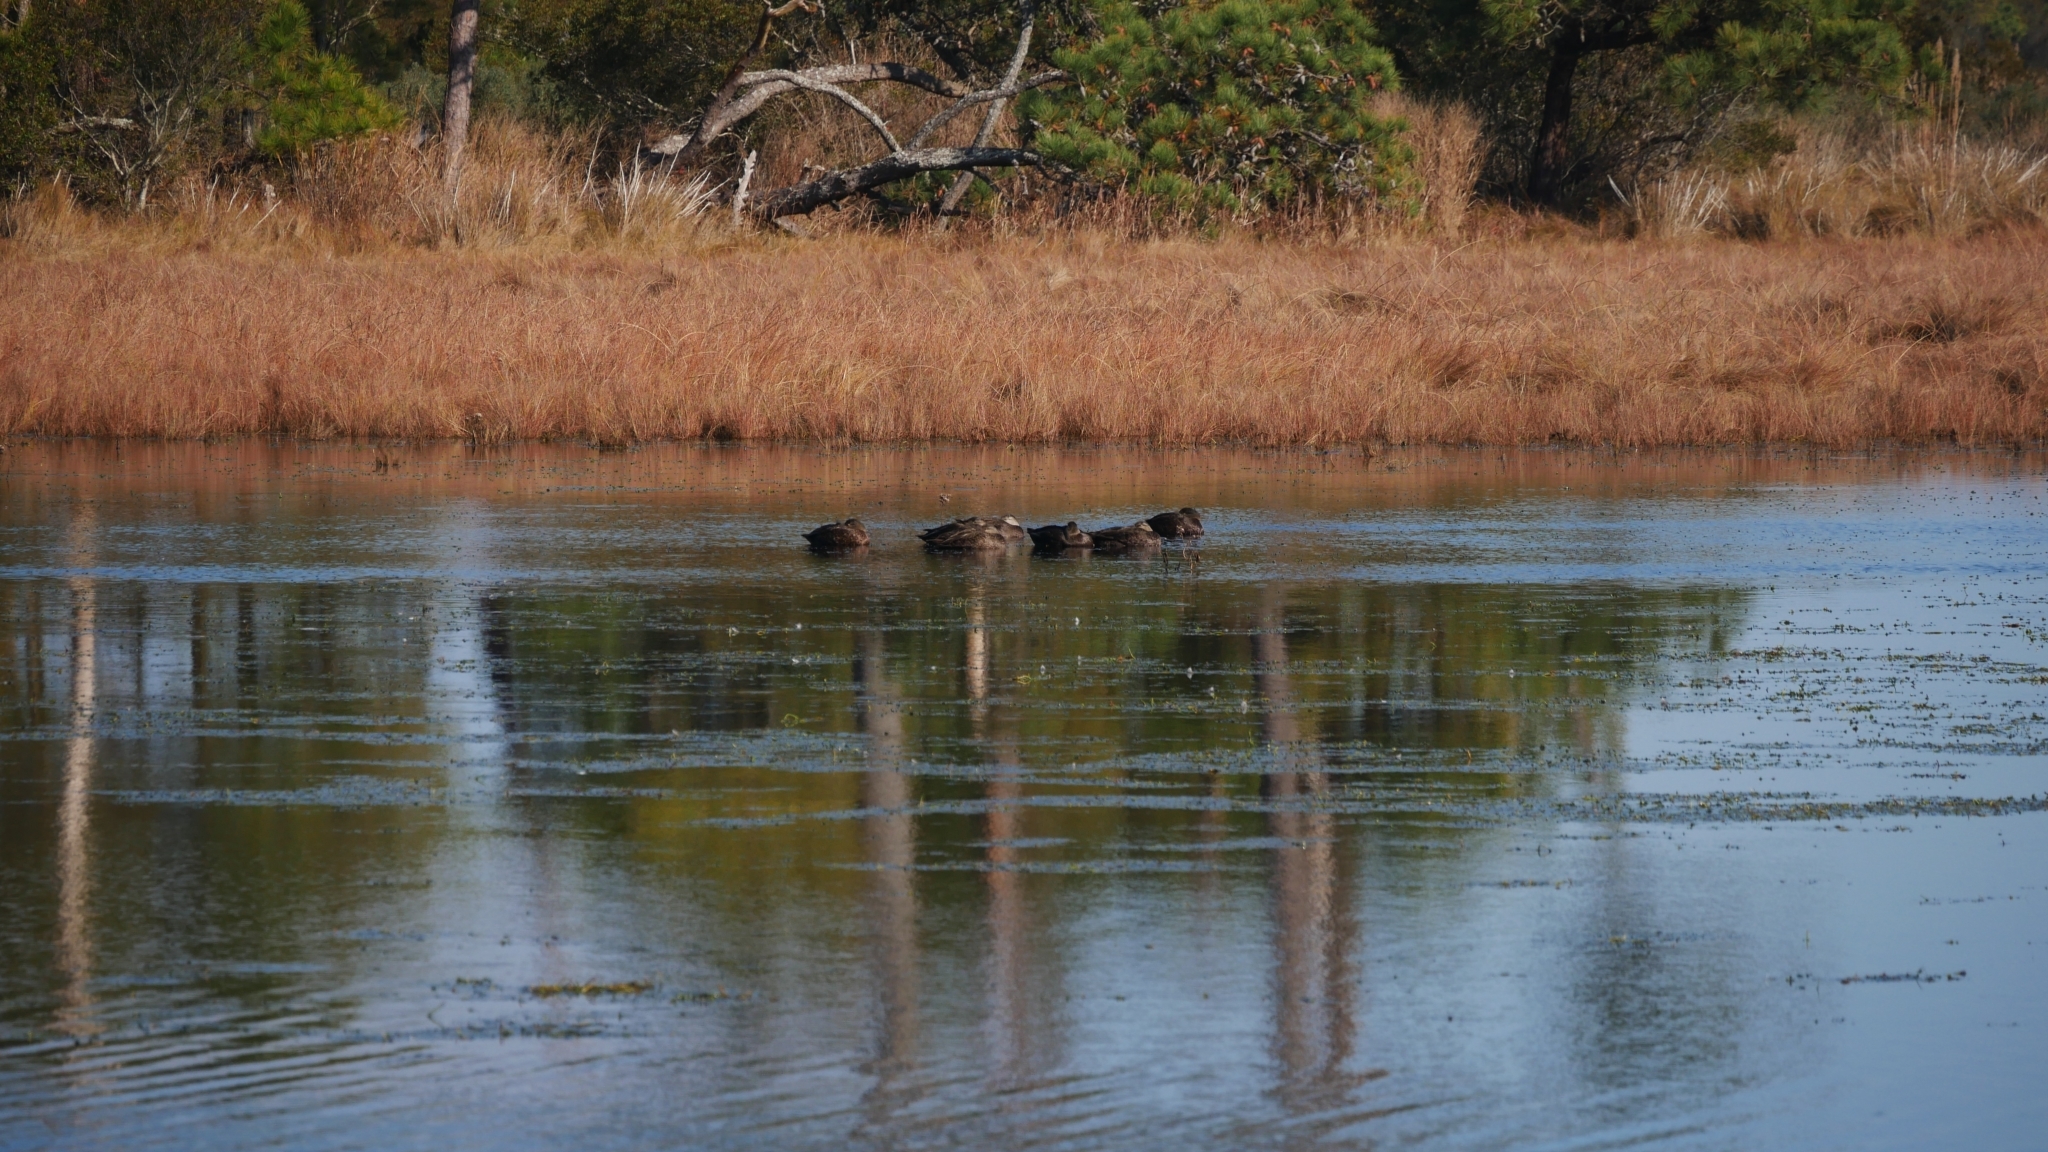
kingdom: Animalia
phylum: Chordata
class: Aves
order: Anseriformes
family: Anatidae
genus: Anas
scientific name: Anas rubripes
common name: American black duck
